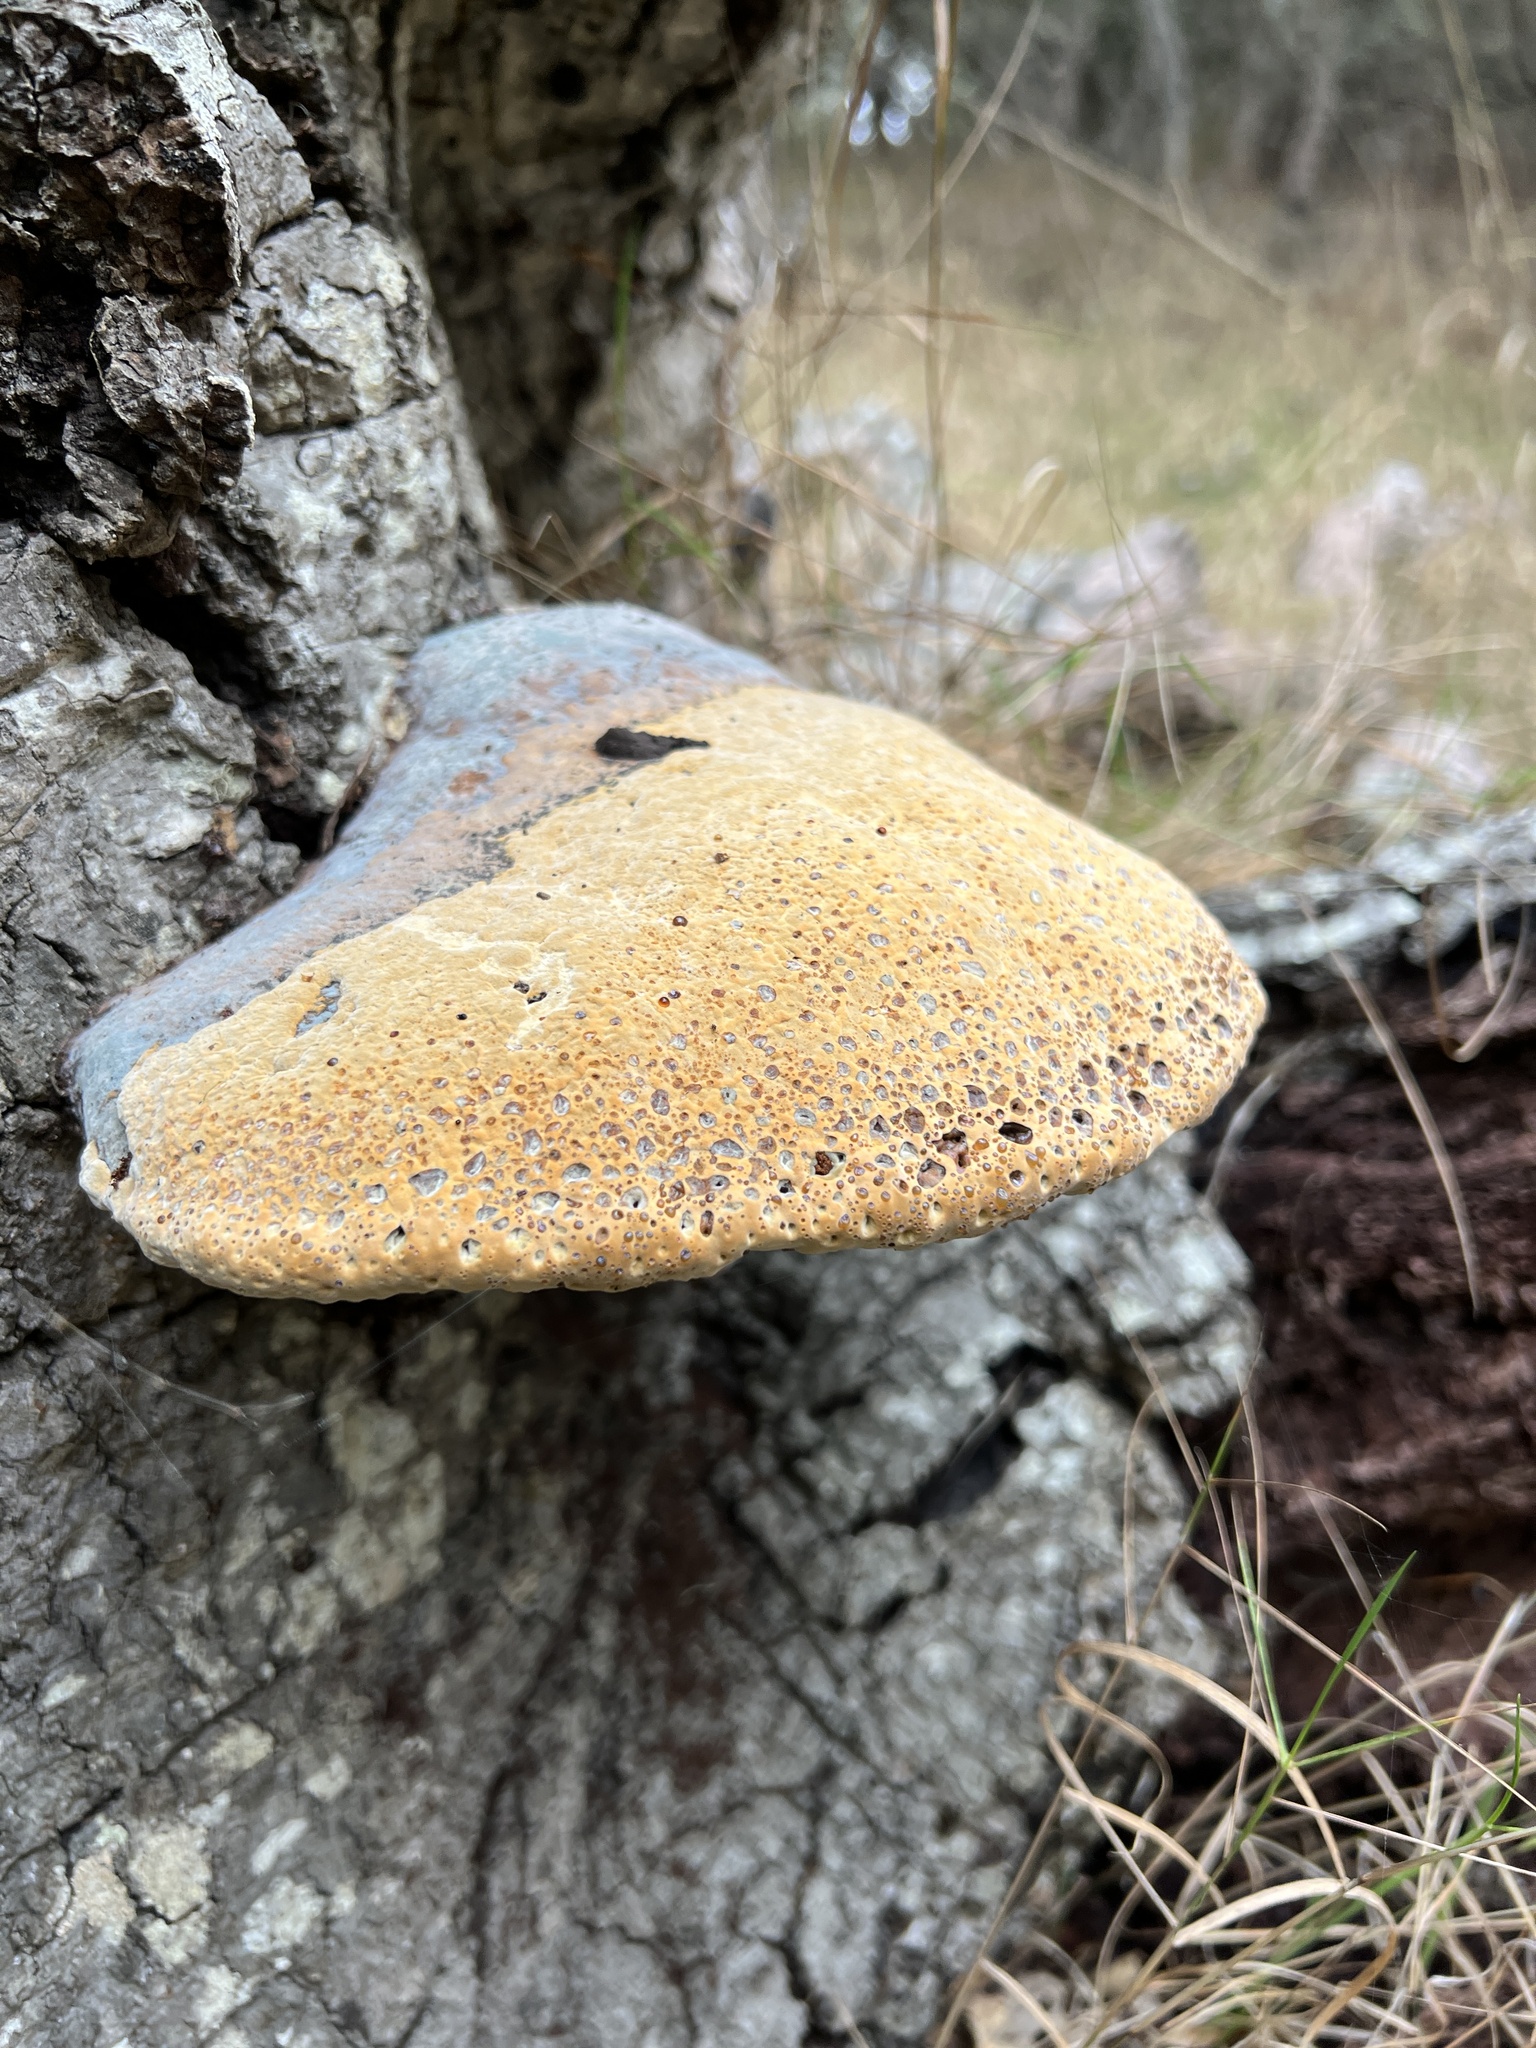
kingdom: Fungi
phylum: Basidiomycota
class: Agaricomycetes
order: Hymenochaetales
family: Hymenochaetaceae
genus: Pseudoinonotus
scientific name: Pseudoinonotus dryadeus
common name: Oak bracket
